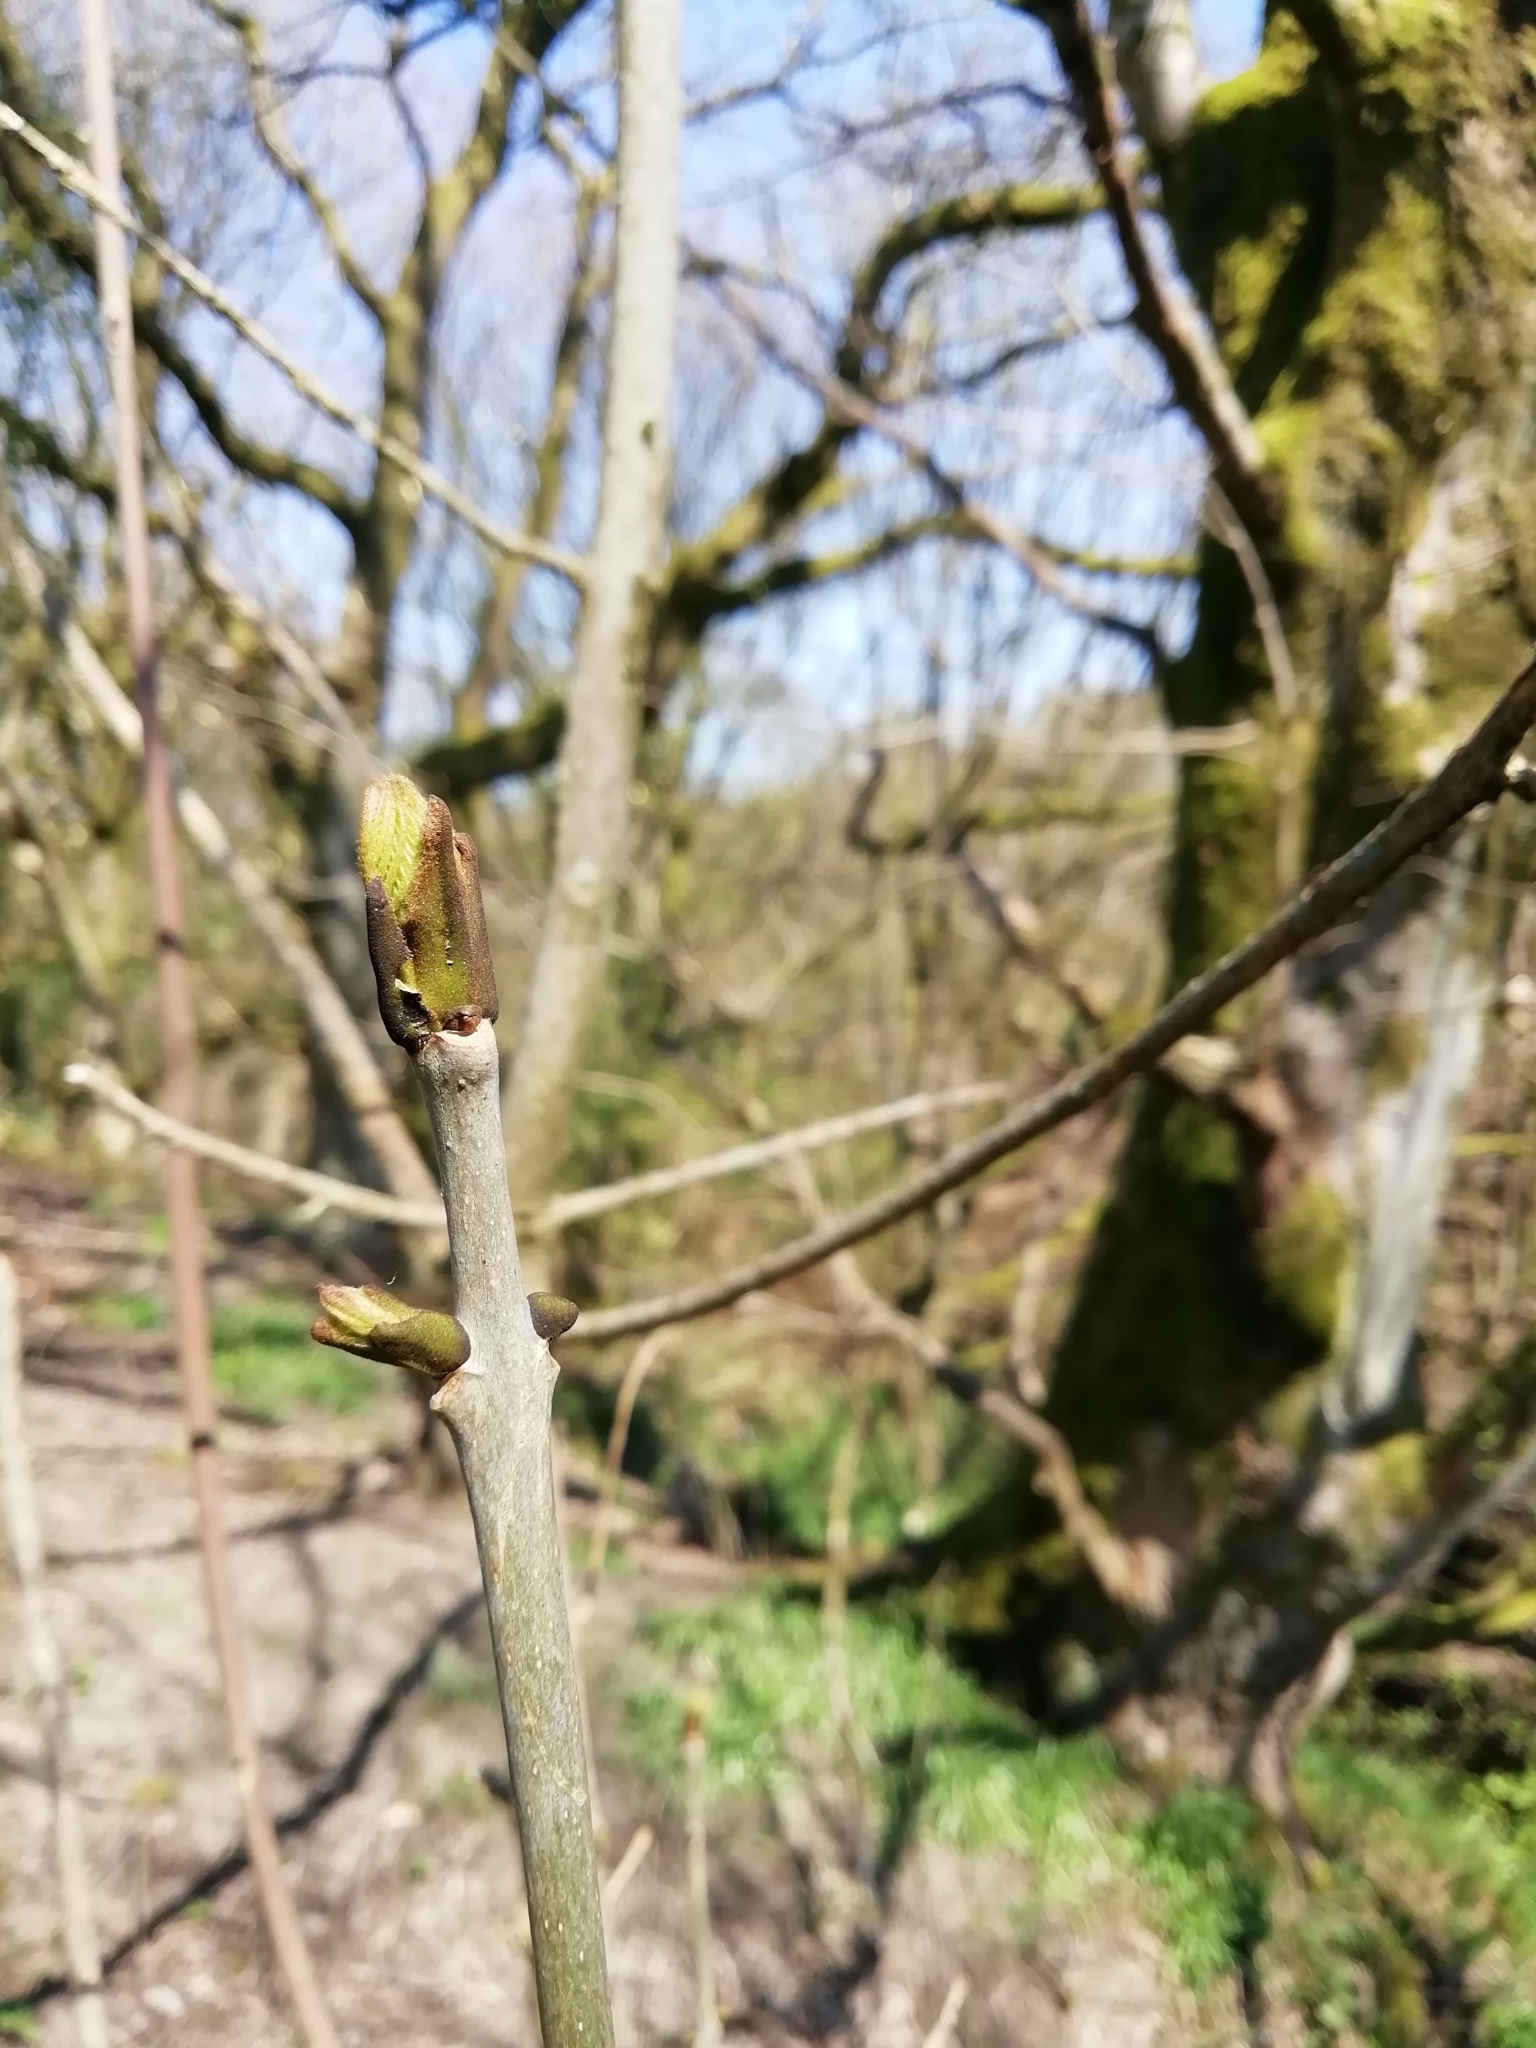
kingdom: Plantae
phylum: Tracheophyta
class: Magnoliopsida
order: Lamiales
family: Oleaceae
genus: Fraxinus
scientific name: Fraxinus excelsior
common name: European ash
